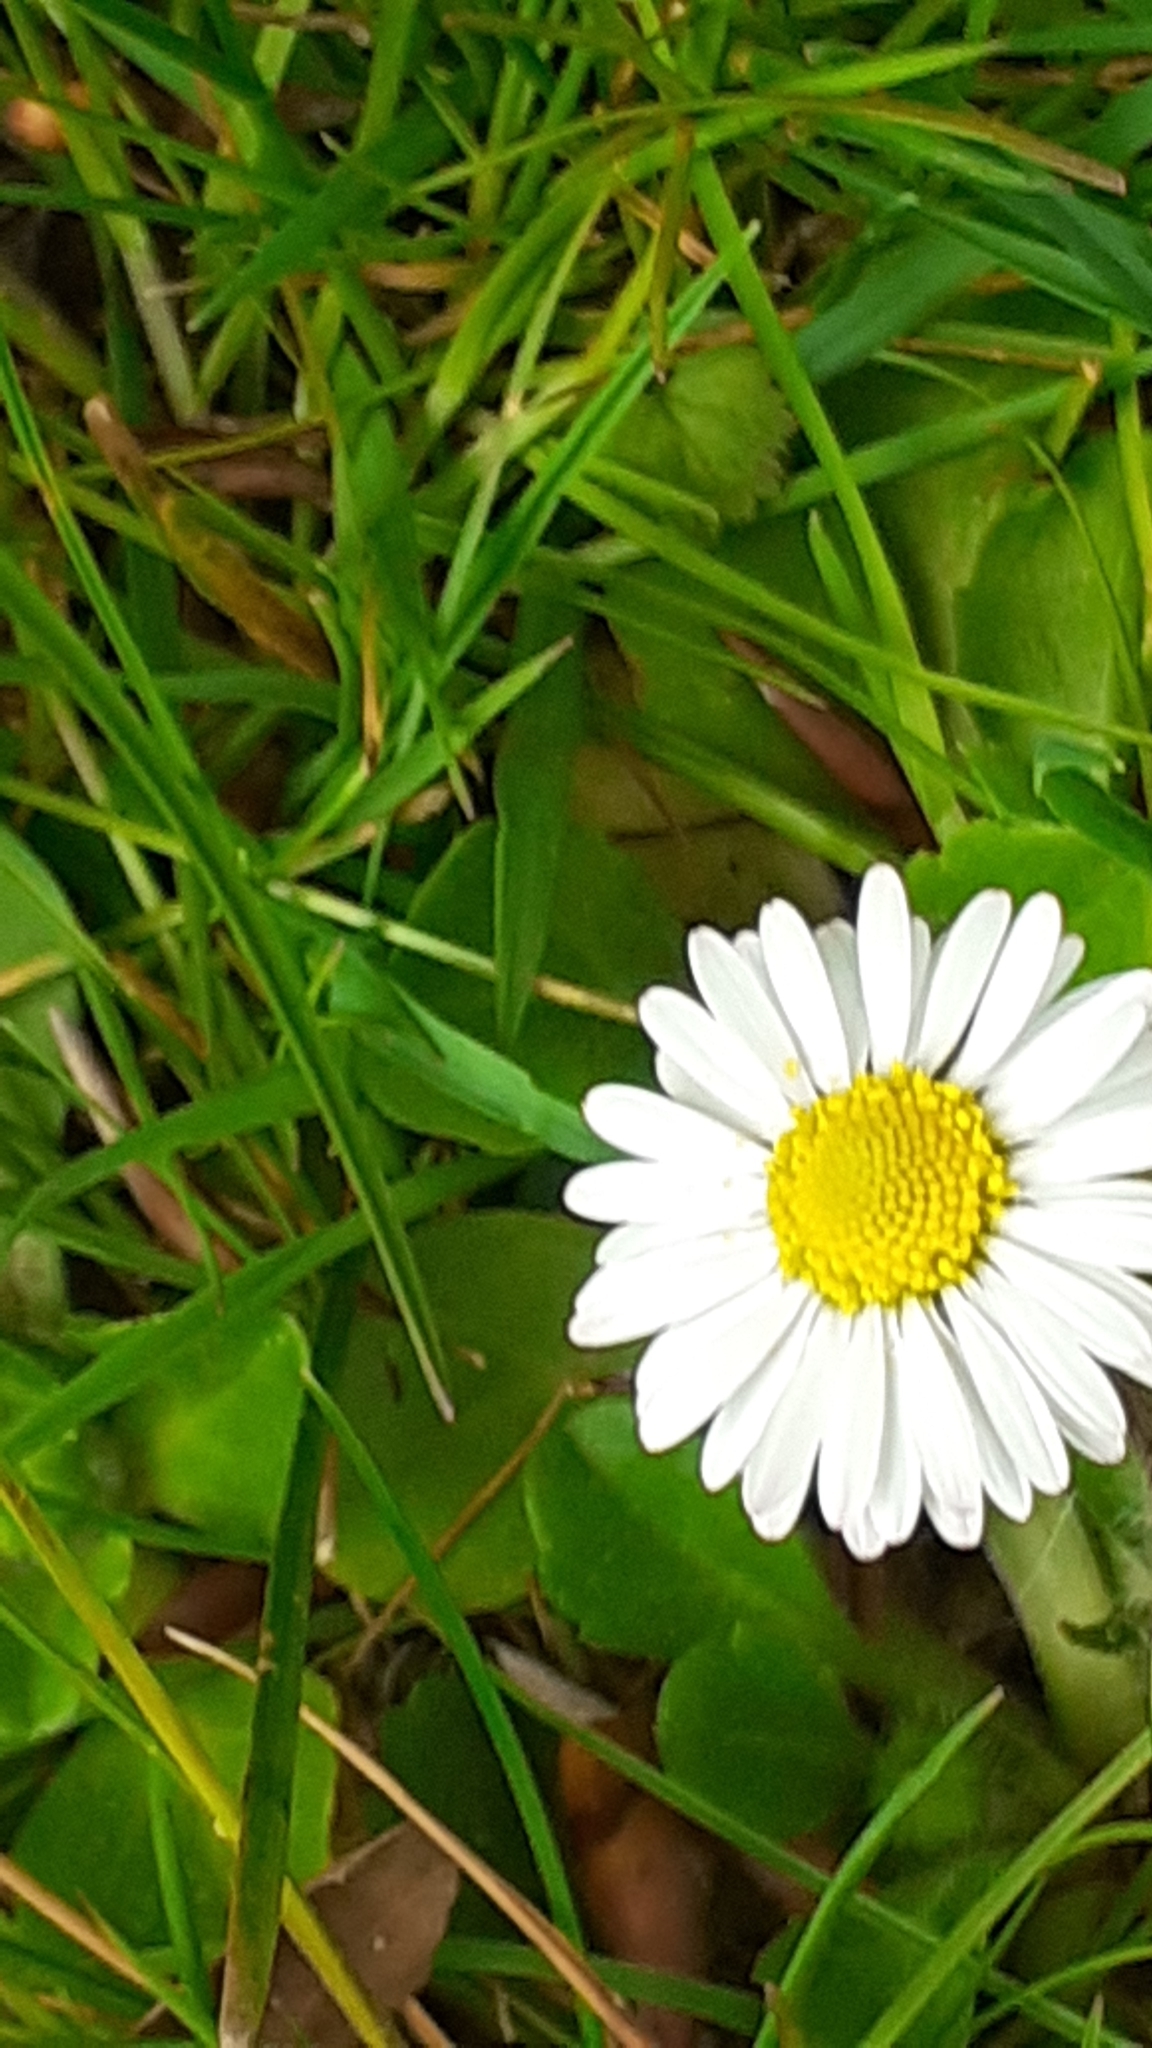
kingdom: Plantae
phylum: Tracheophyta
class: Magnoliopsida
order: Asterales
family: Asteraceae
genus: Bellis
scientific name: Bellis perennis
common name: Lawndaisy
